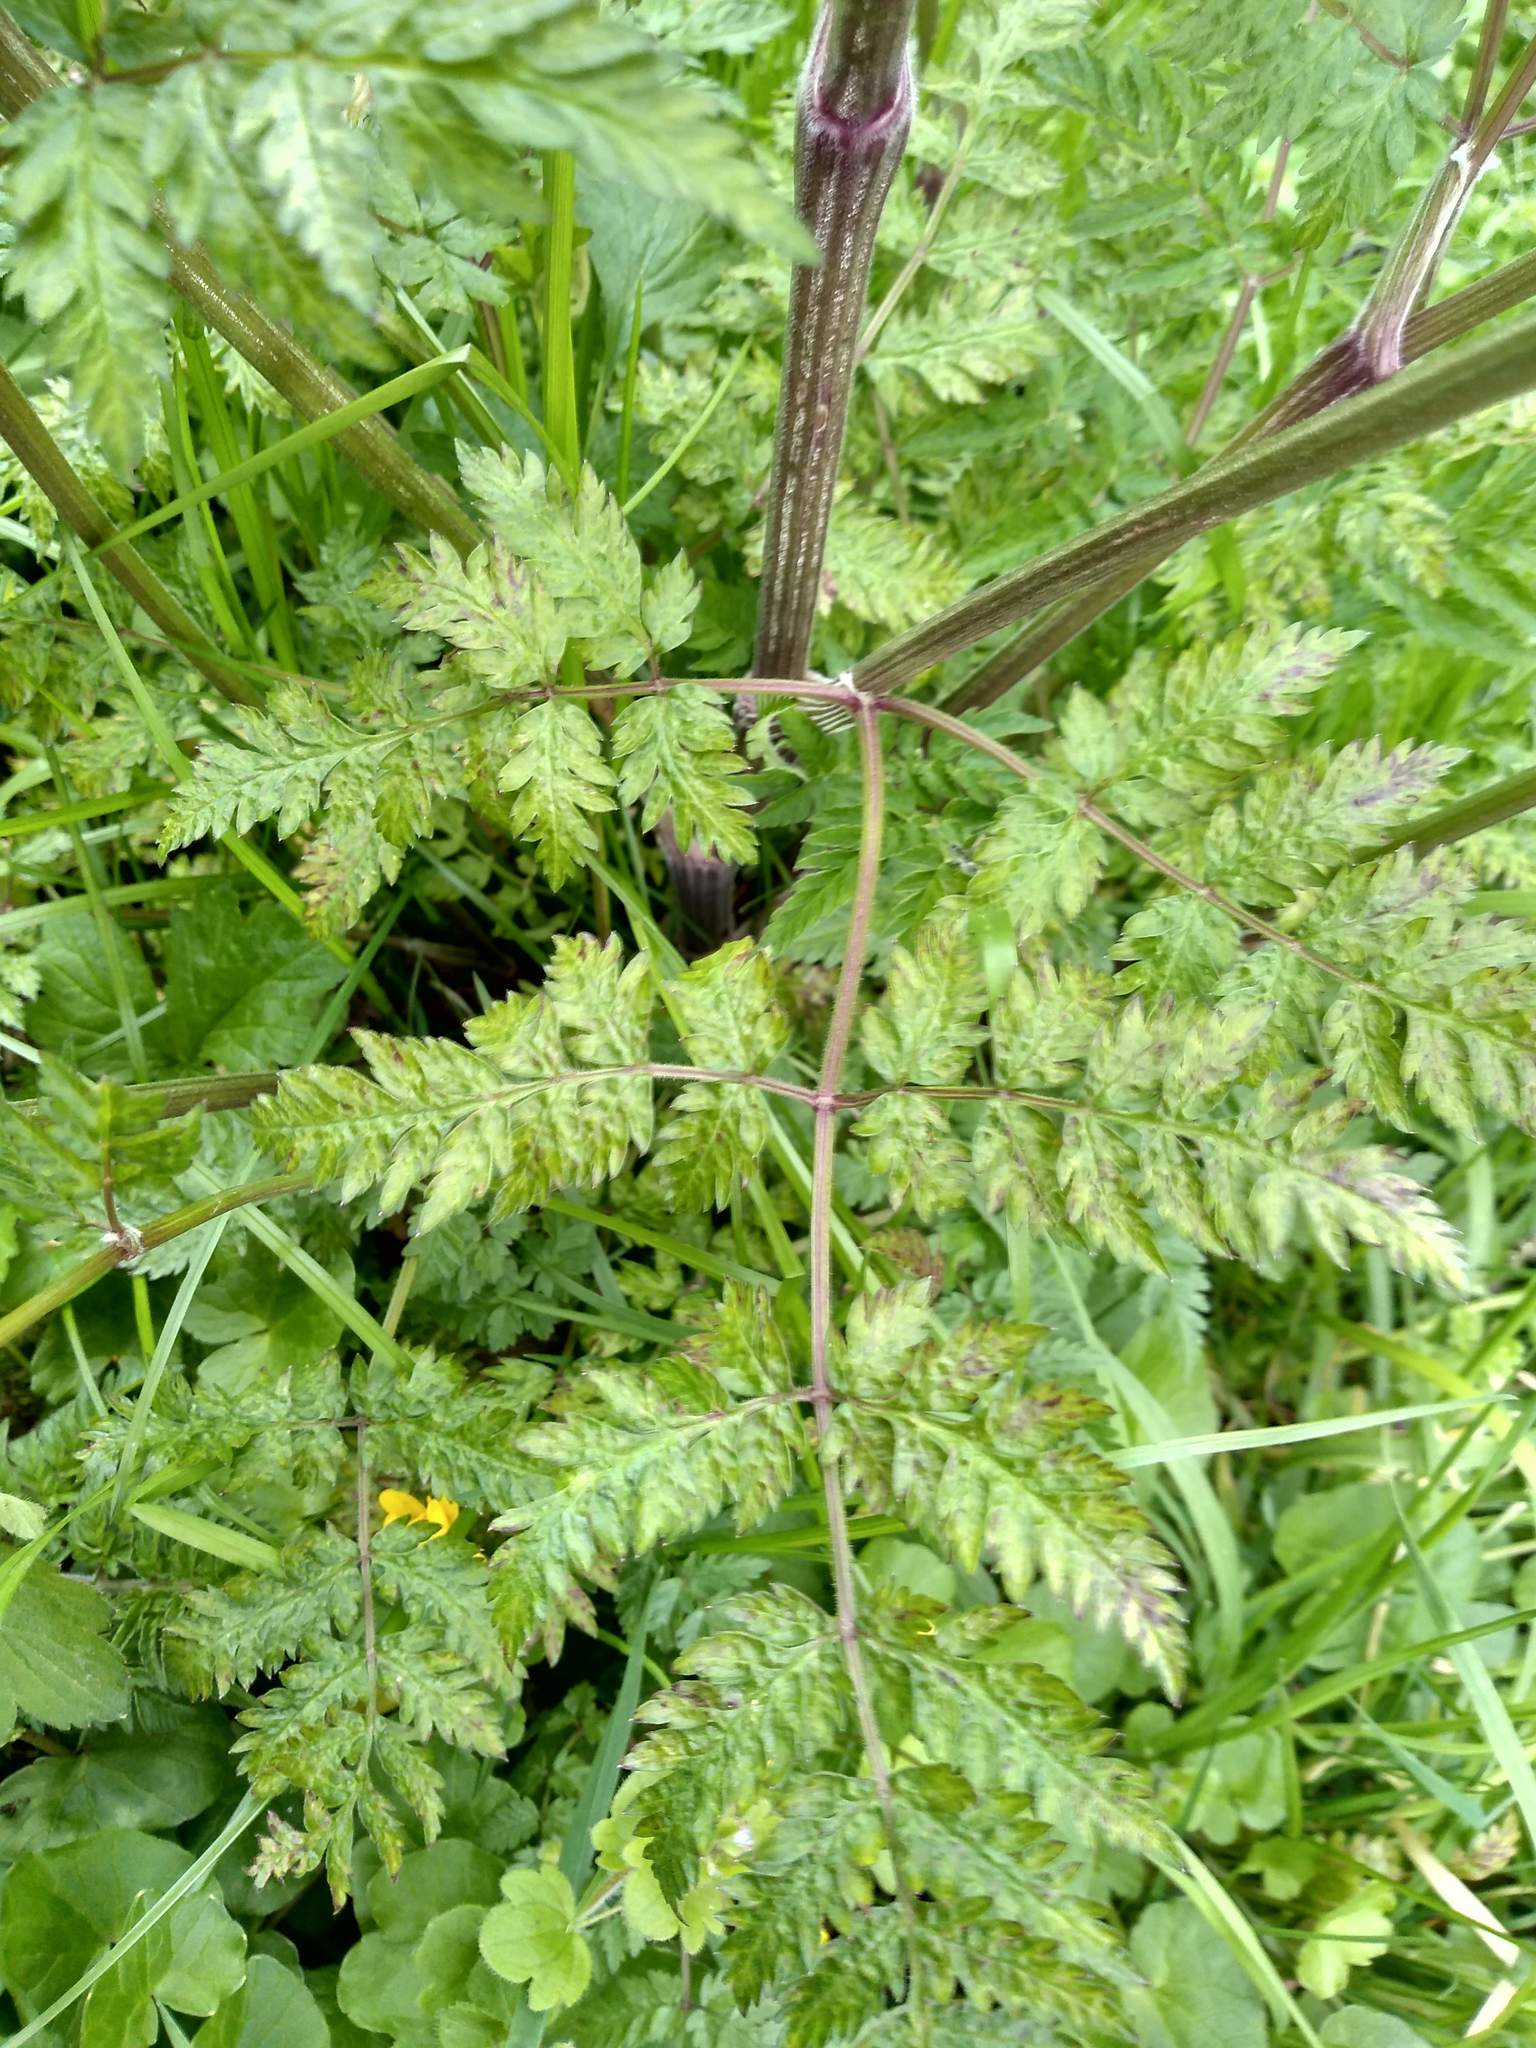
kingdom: Plantae
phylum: Tracheophyta
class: Magnoliopsida
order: Apiales
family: Apiaceae
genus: Anthriscus
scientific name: Anthriscus sylvestris
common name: Cow parsley
